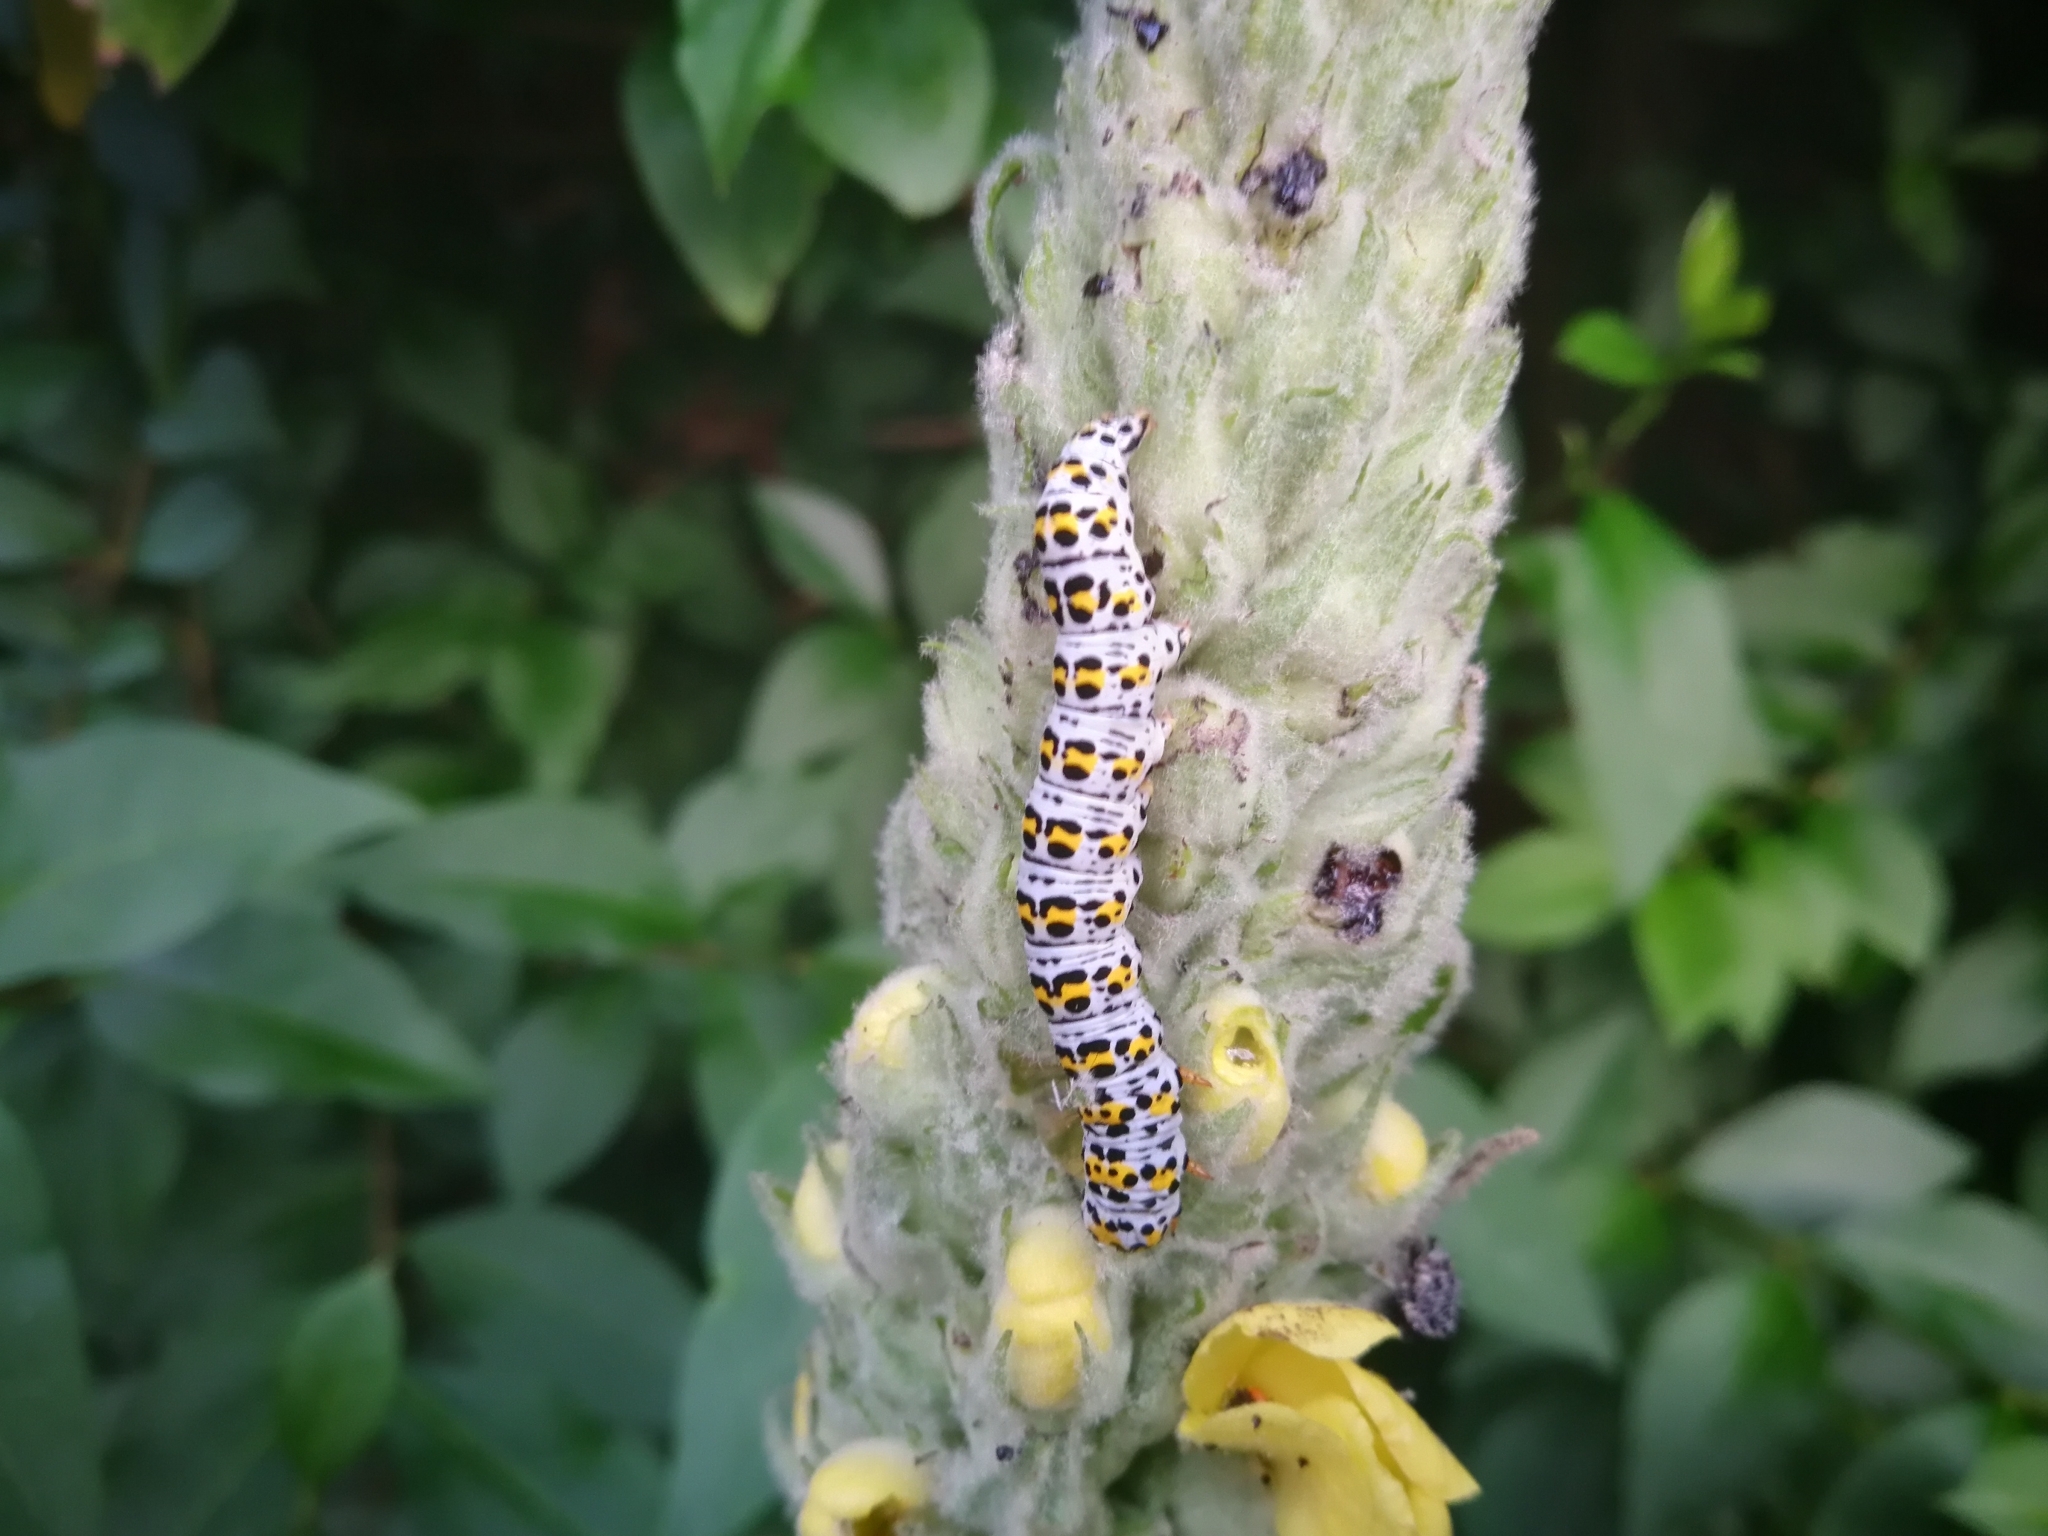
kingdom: Animalia
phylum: Arthropoda
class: Insecta
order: Lepidoptera
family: Noctuidae
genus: Cucullia
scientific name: Cucullia verbasci
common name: Mullein
